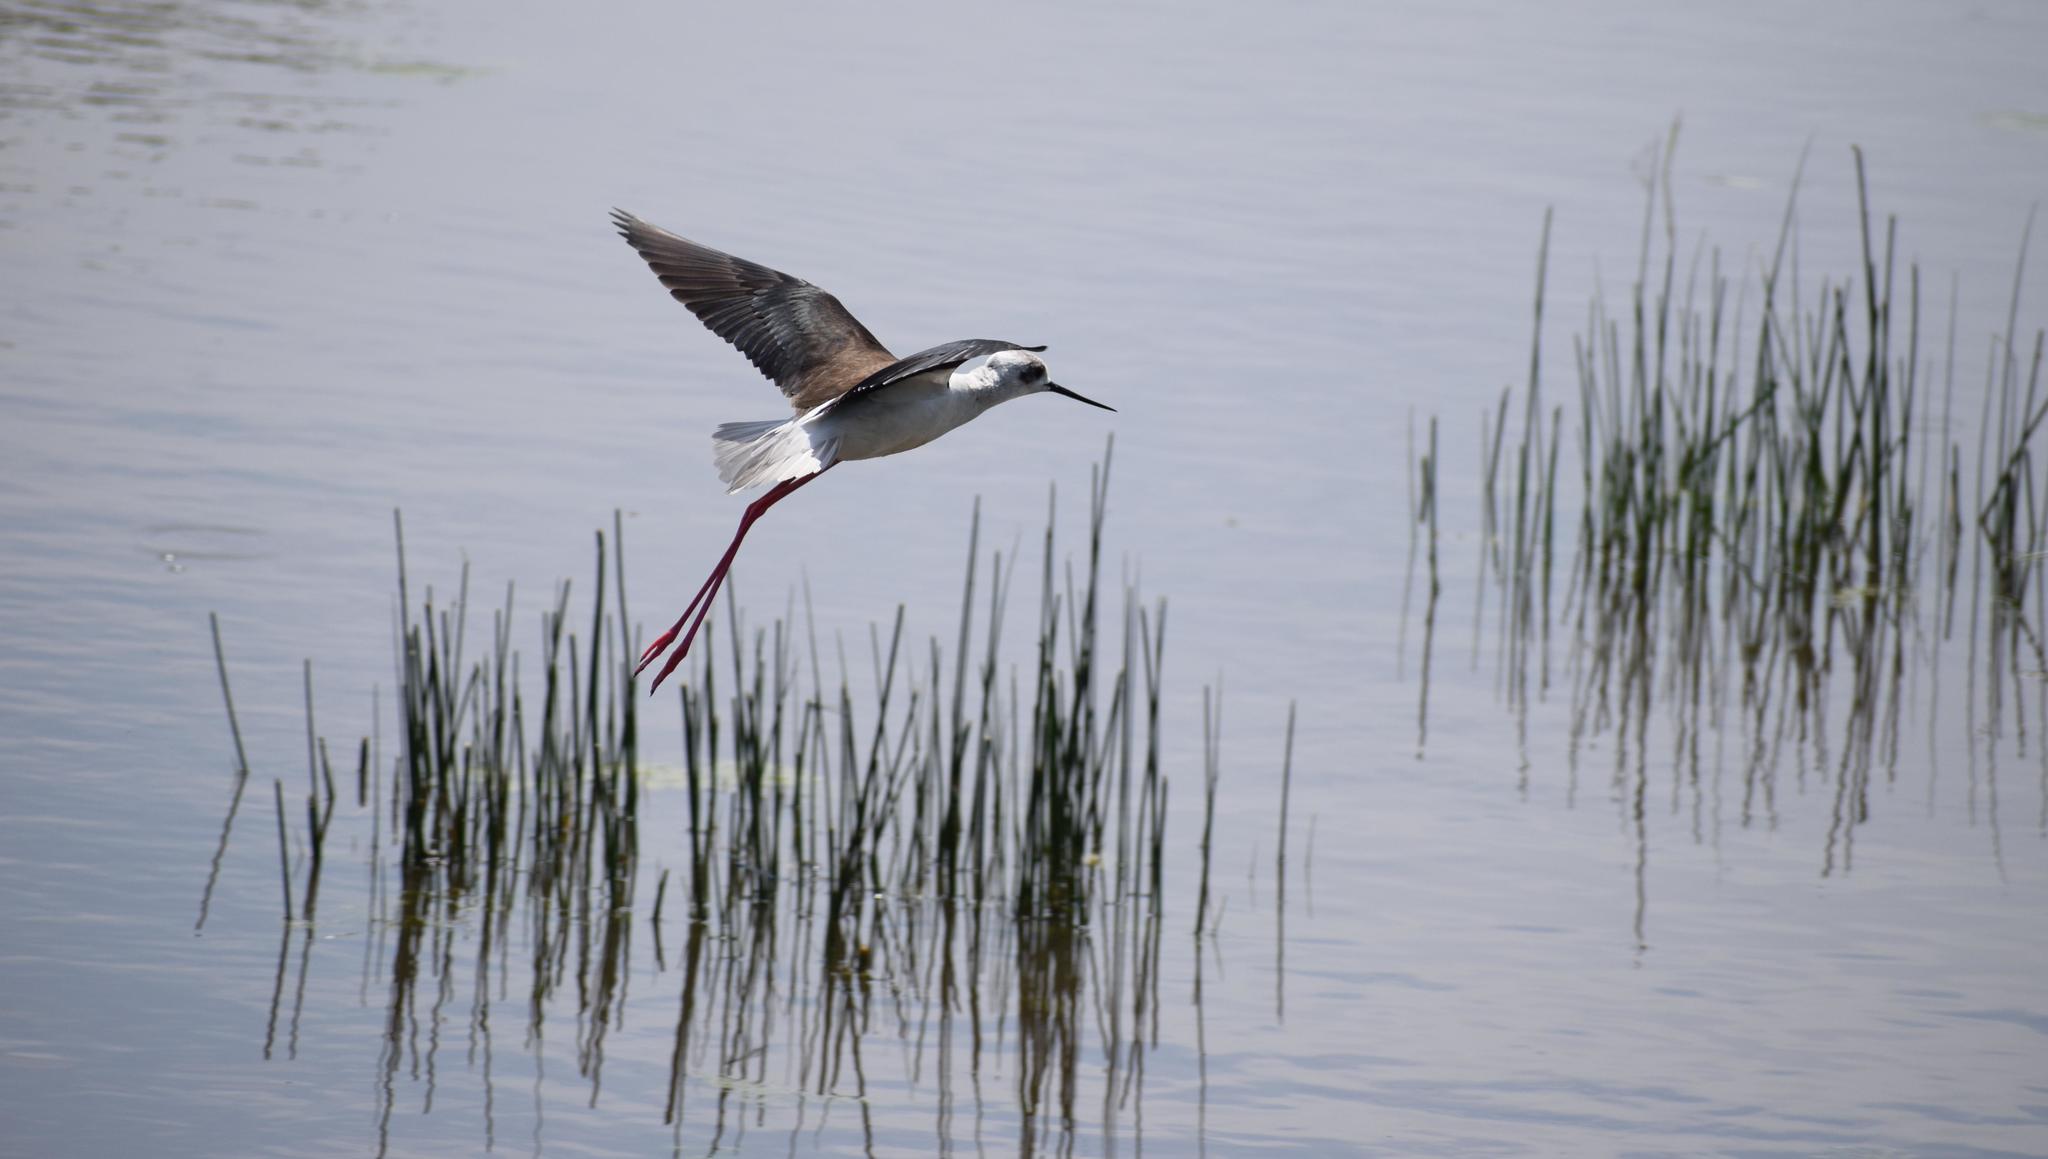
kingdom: Animalia
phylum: Chordata
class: Aves
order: Charadriiformes
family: Recurvirostridae
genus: Himantopus
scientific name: Himantopus himantopus
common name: Black-winged stilt
